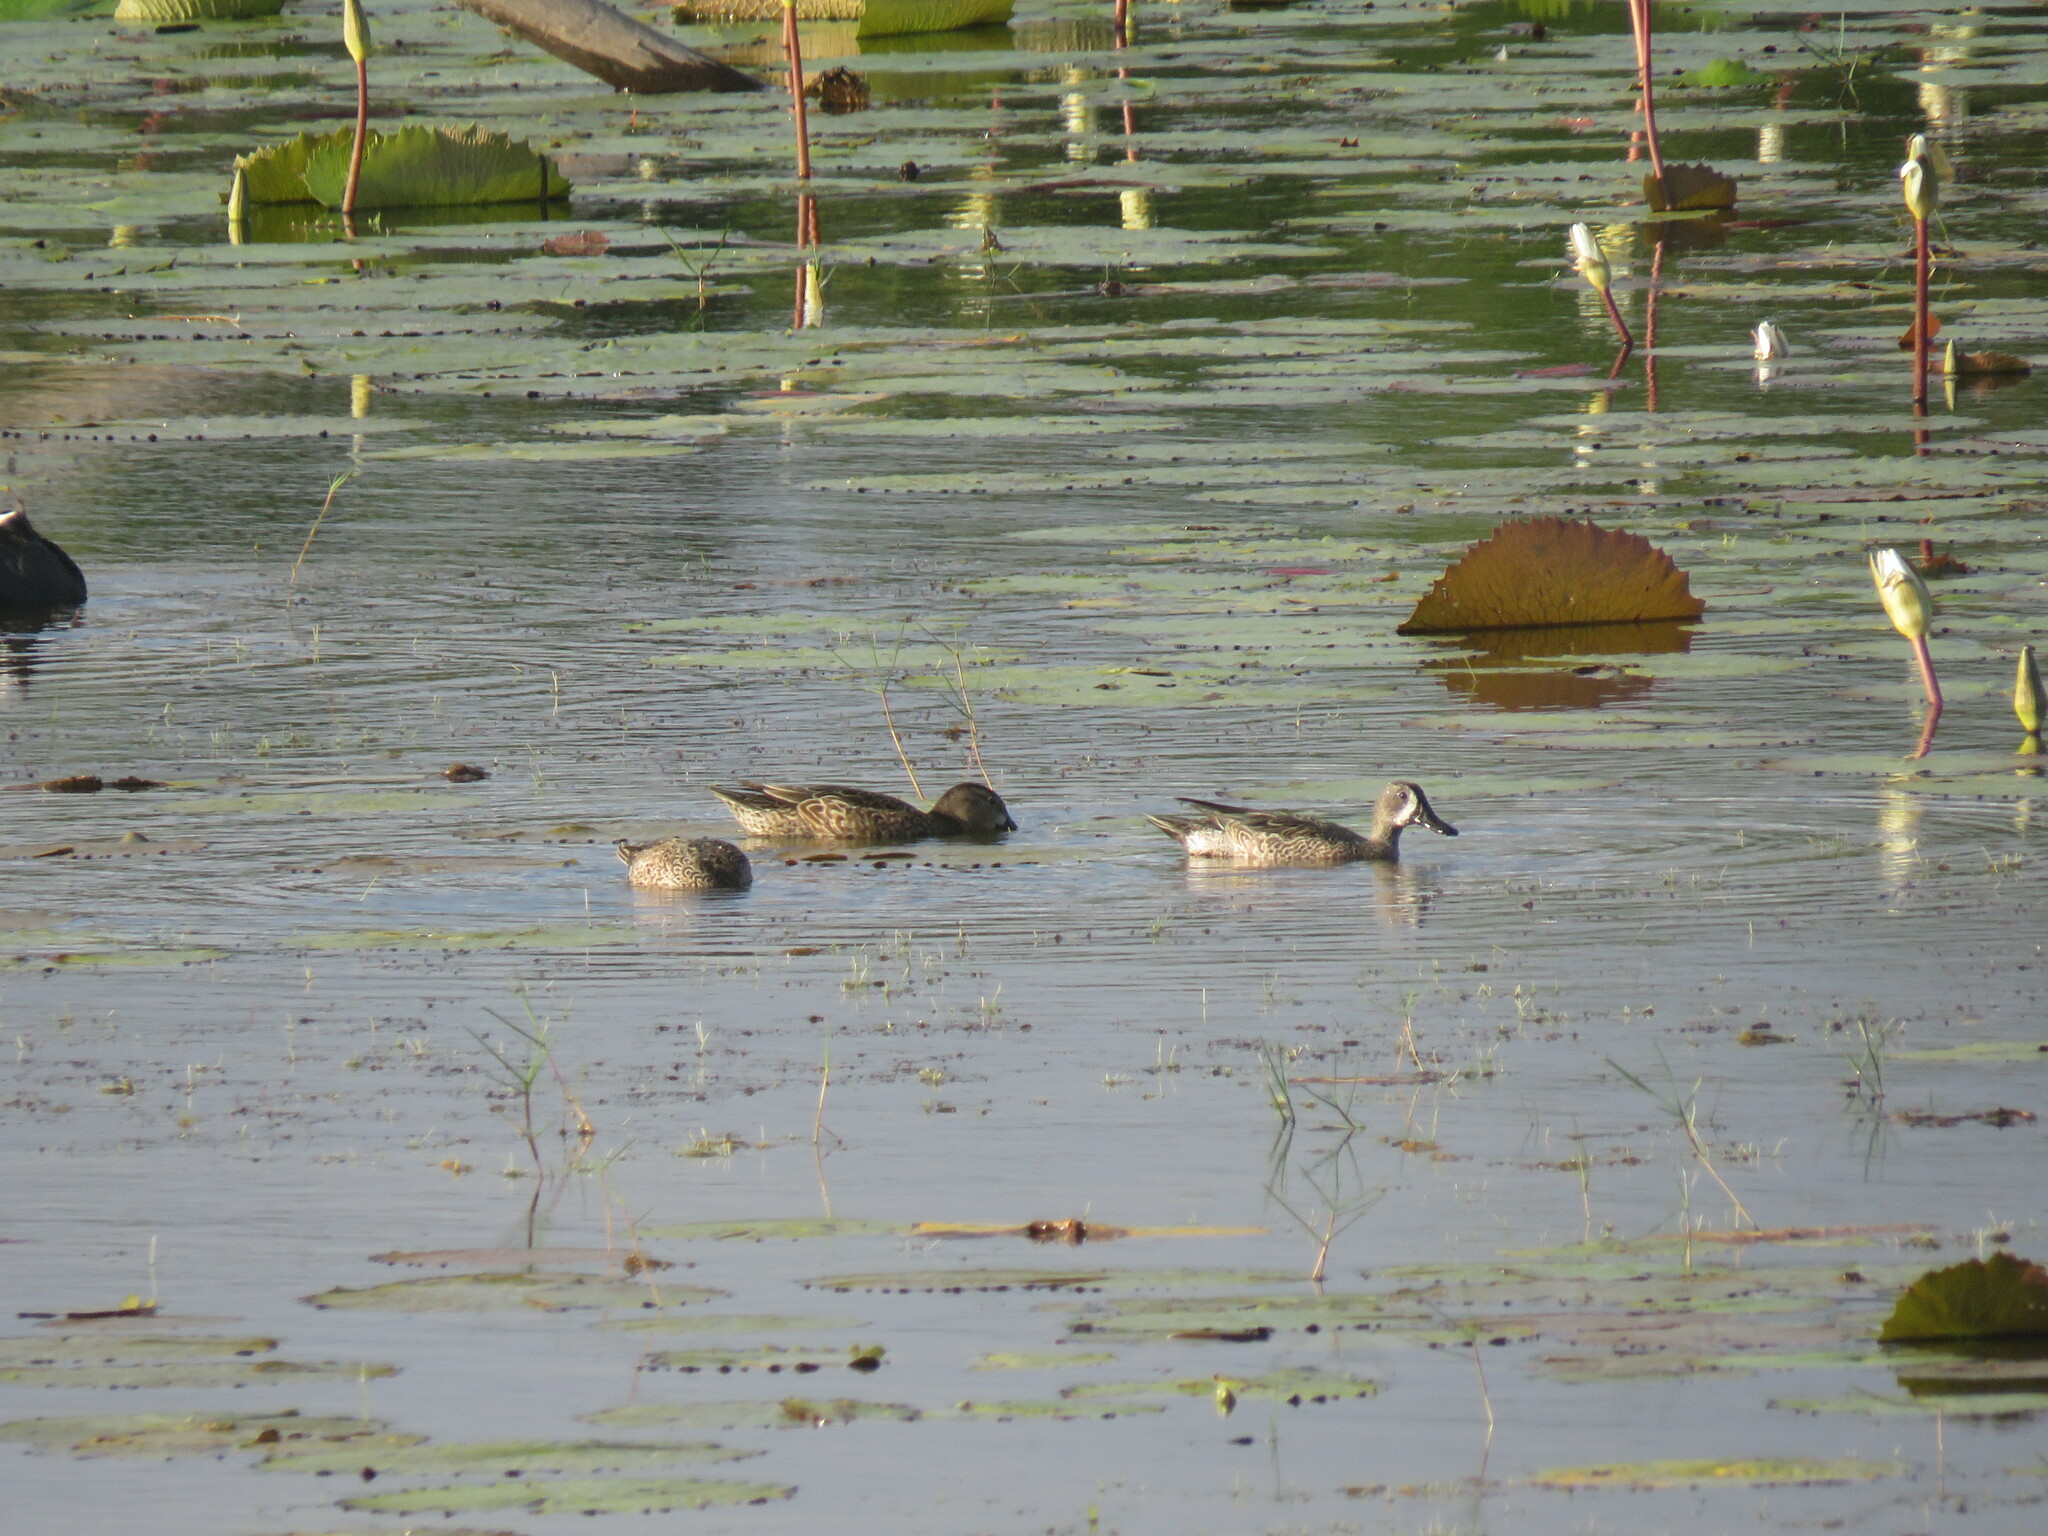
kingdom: Animalia
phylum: Chordata
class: Aves
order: Anseriformes
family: Anatidae
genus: Spatula
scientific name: Spatula discors
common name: Blue-winged teal
